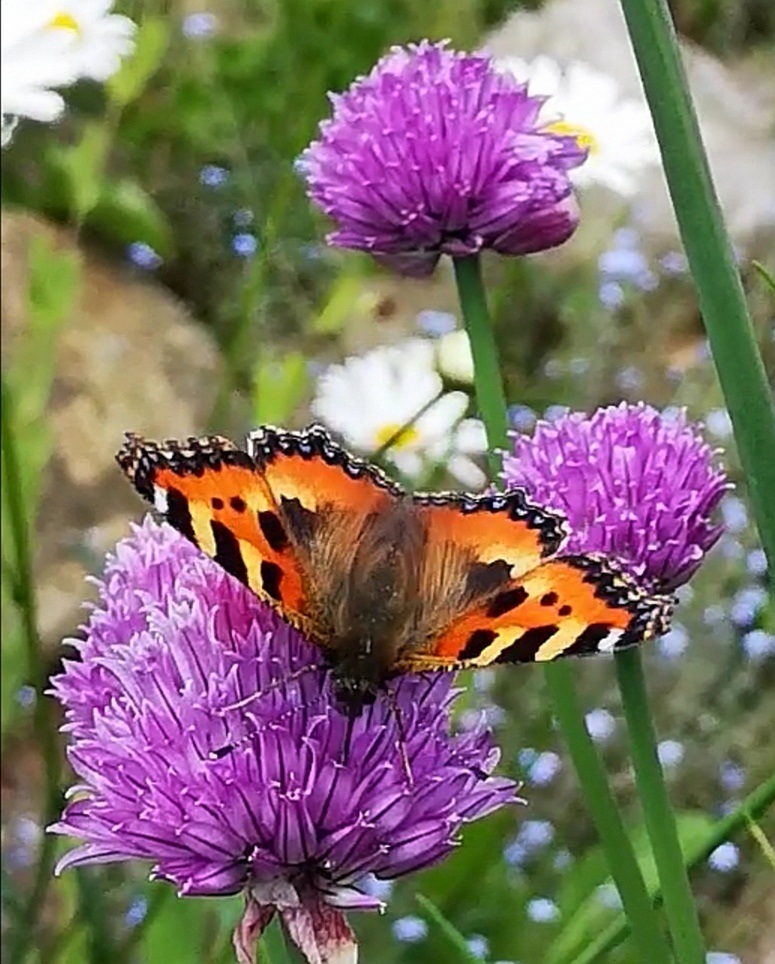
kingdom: Animalia
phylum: Arthropoda
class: Insecta
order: Lepidoptera
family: Nymphalidae
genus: Aglais
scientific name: Aglais urticae
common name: Small tortoiseshell
